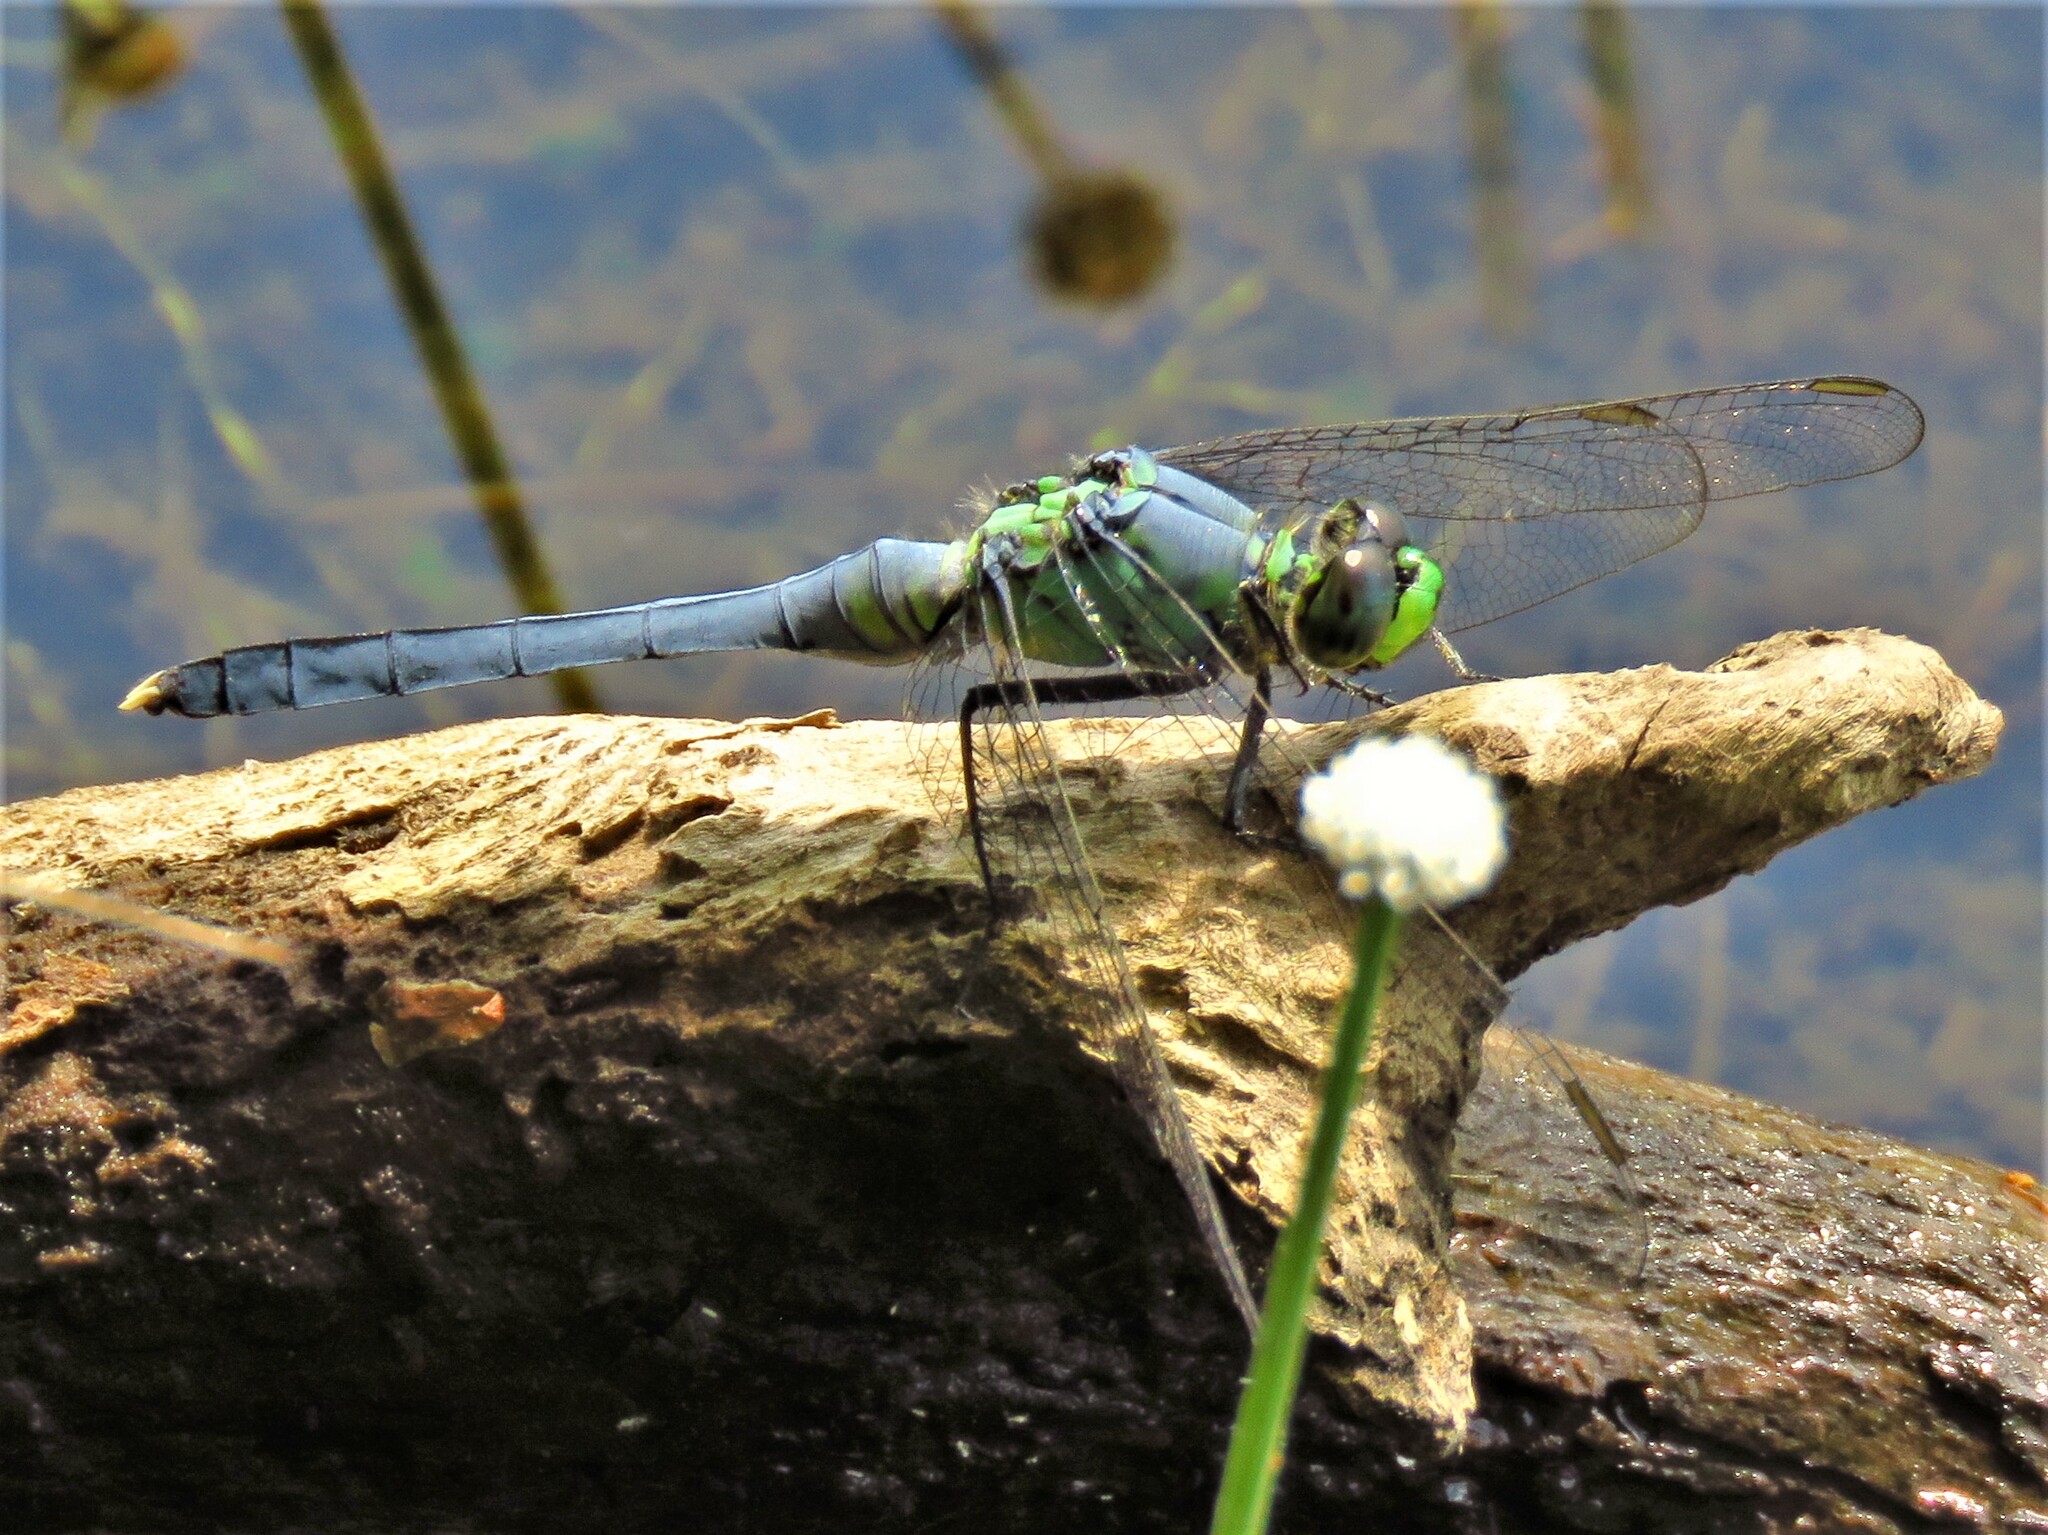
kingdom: Animalia
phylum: Arthropoda
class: Insecta
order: Odonata
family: Libellulidae
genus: Erythemis
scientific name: Erythemis simplicicollis
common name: Eastern pondhawk
